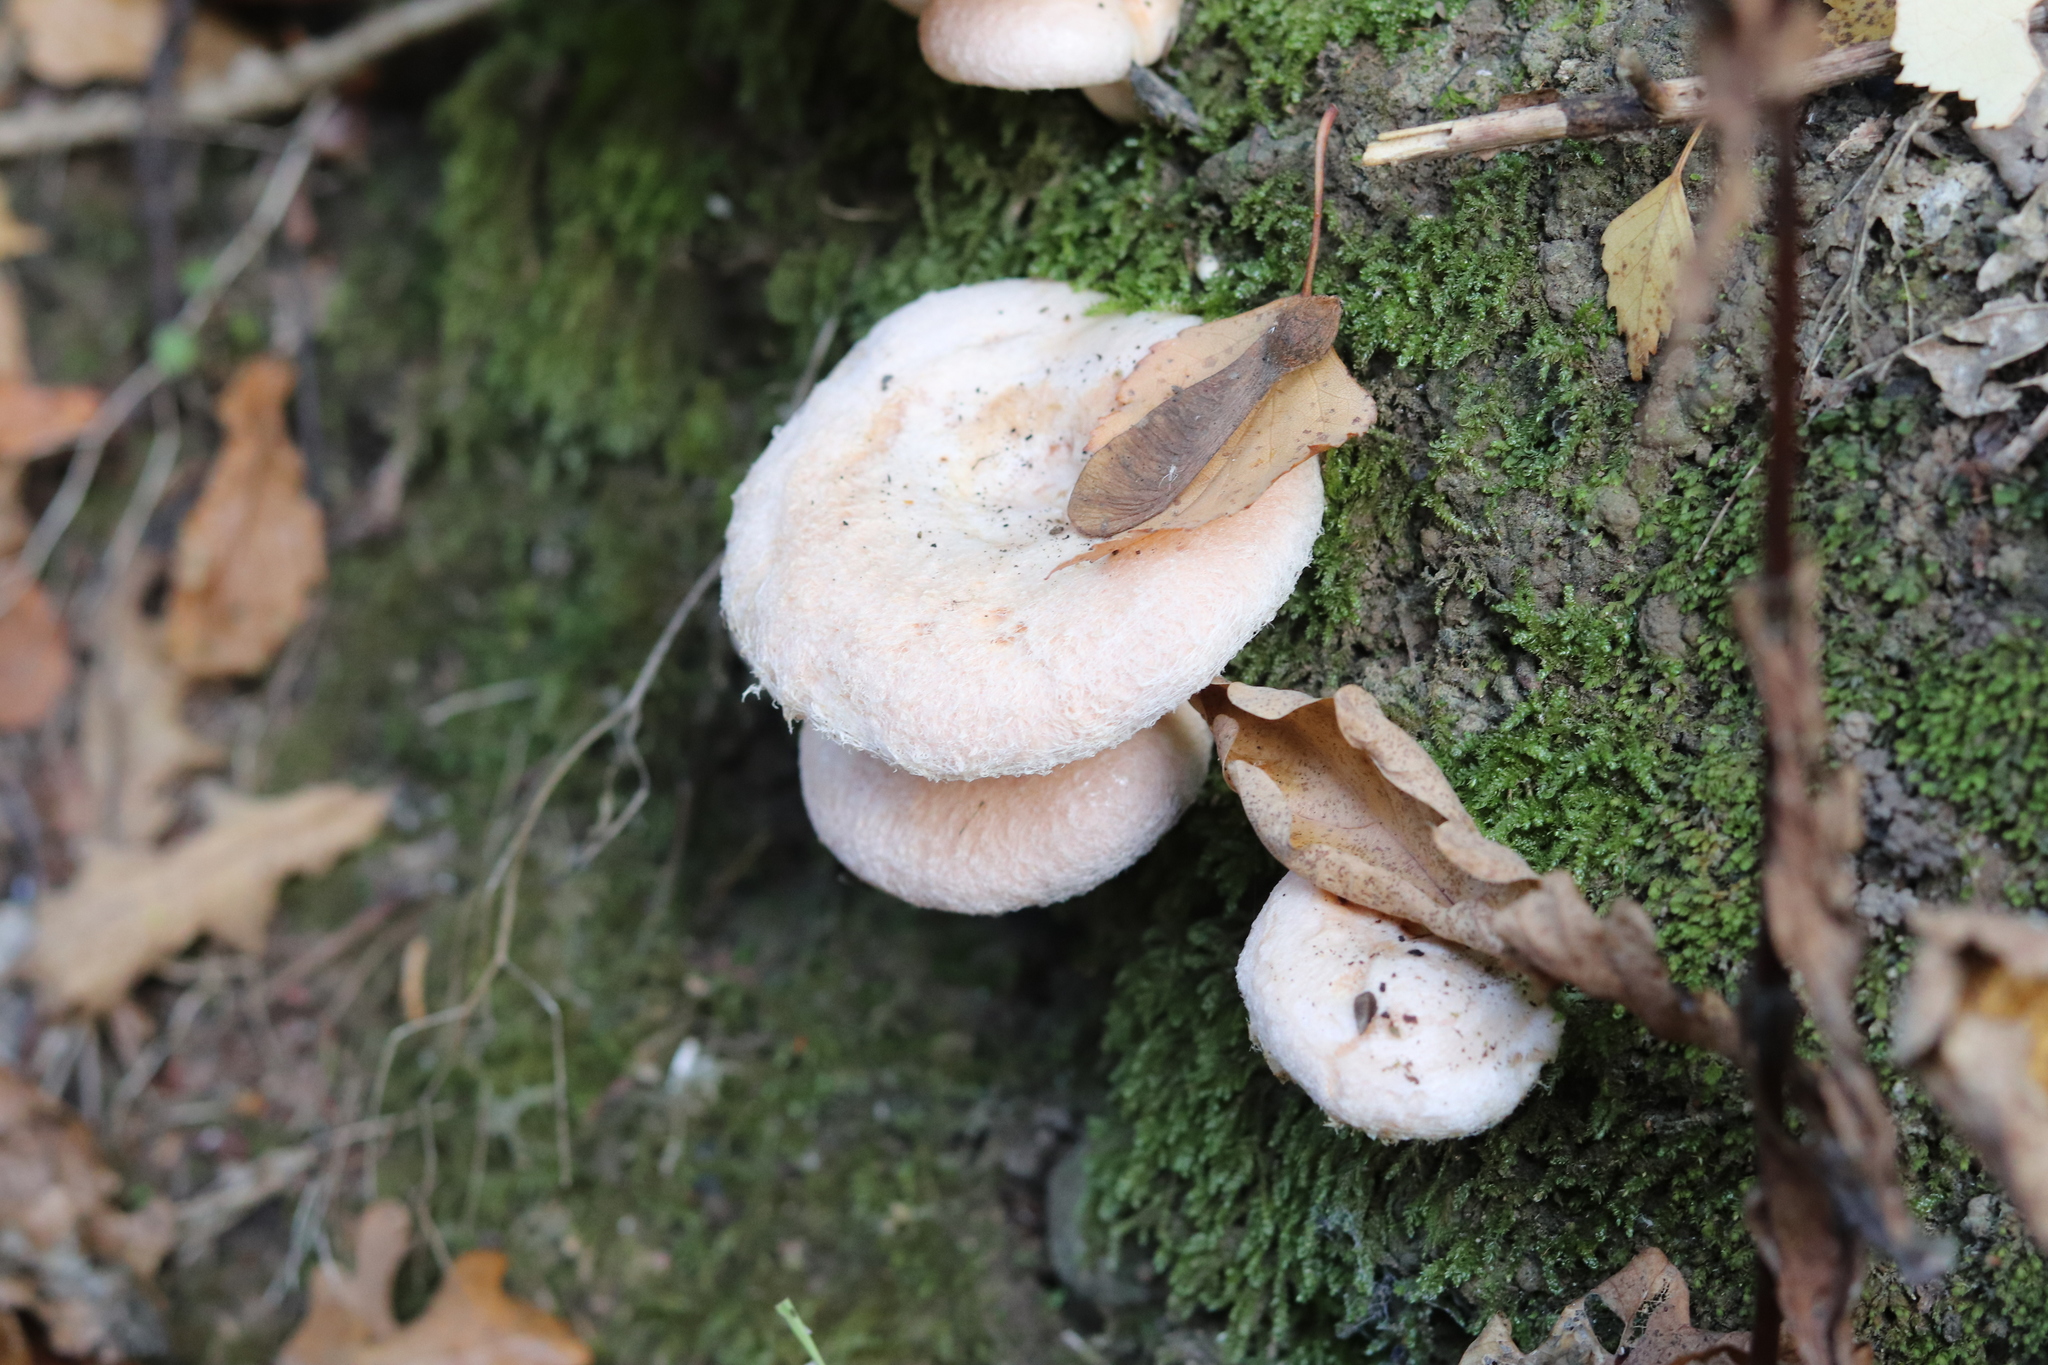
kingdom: Fungi
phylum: Basidiomycota
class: Agaricomycetes
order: Russulales
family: Russulaceae
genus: Lactarius
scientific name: Lactarius pubescens
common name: Bearded milkcap
